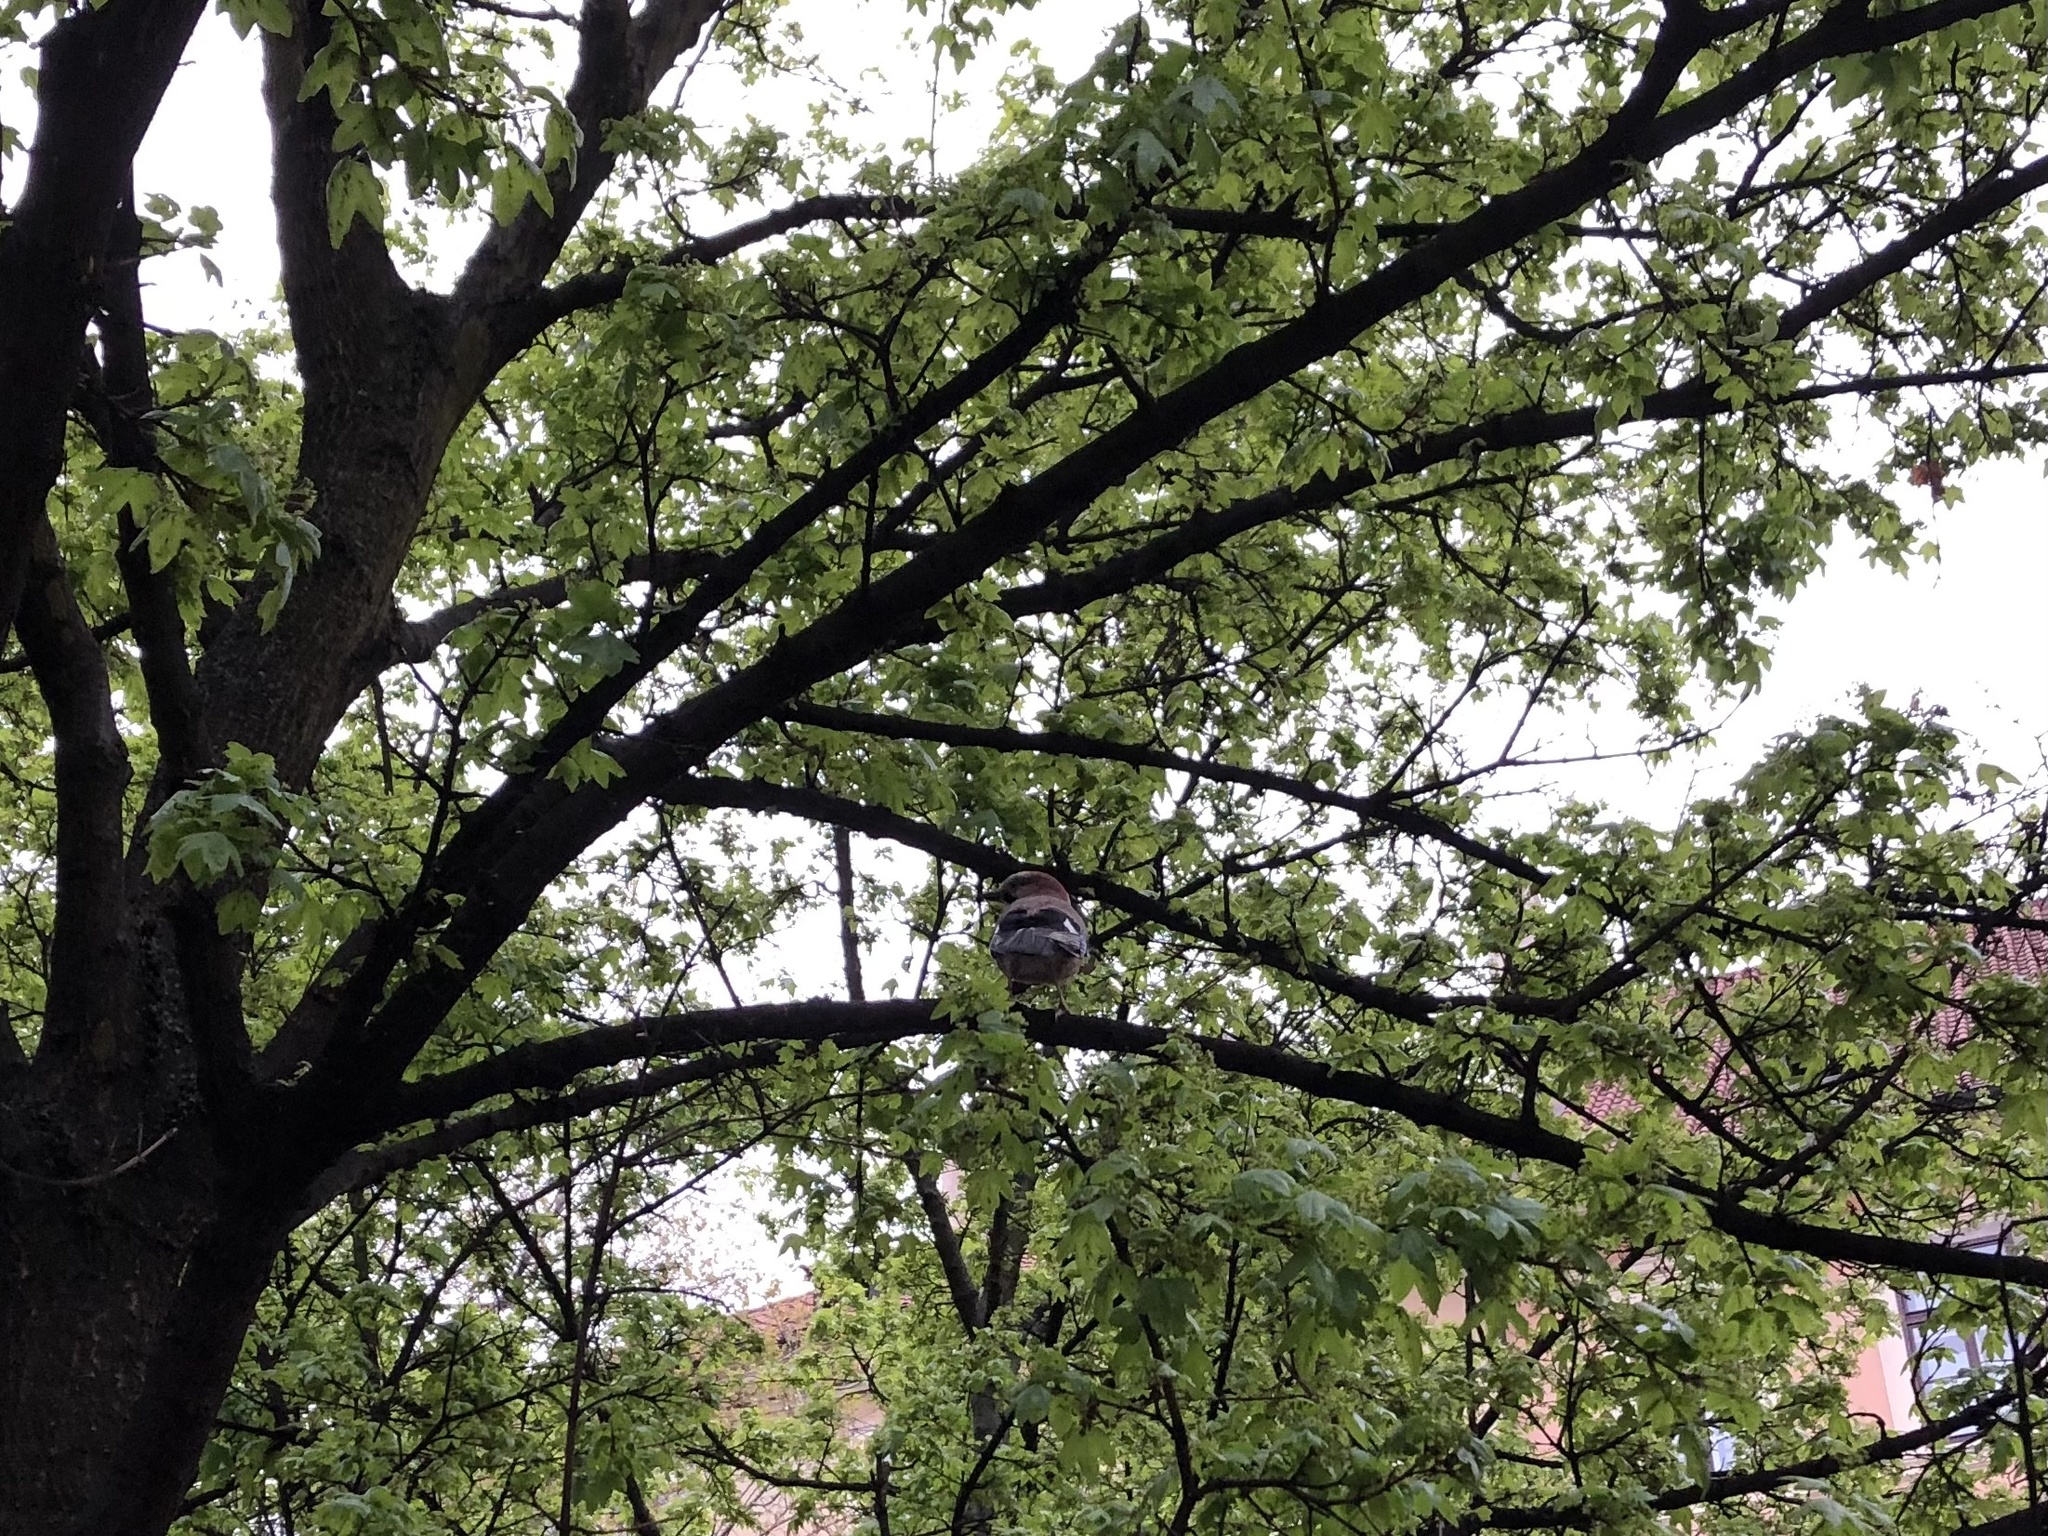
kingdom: Animalia
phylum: Chordata
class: Aves
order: Passeriformes
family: Corvidae
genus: Garrulus
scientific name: Garrulus glandarius
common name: Eurasian jay
